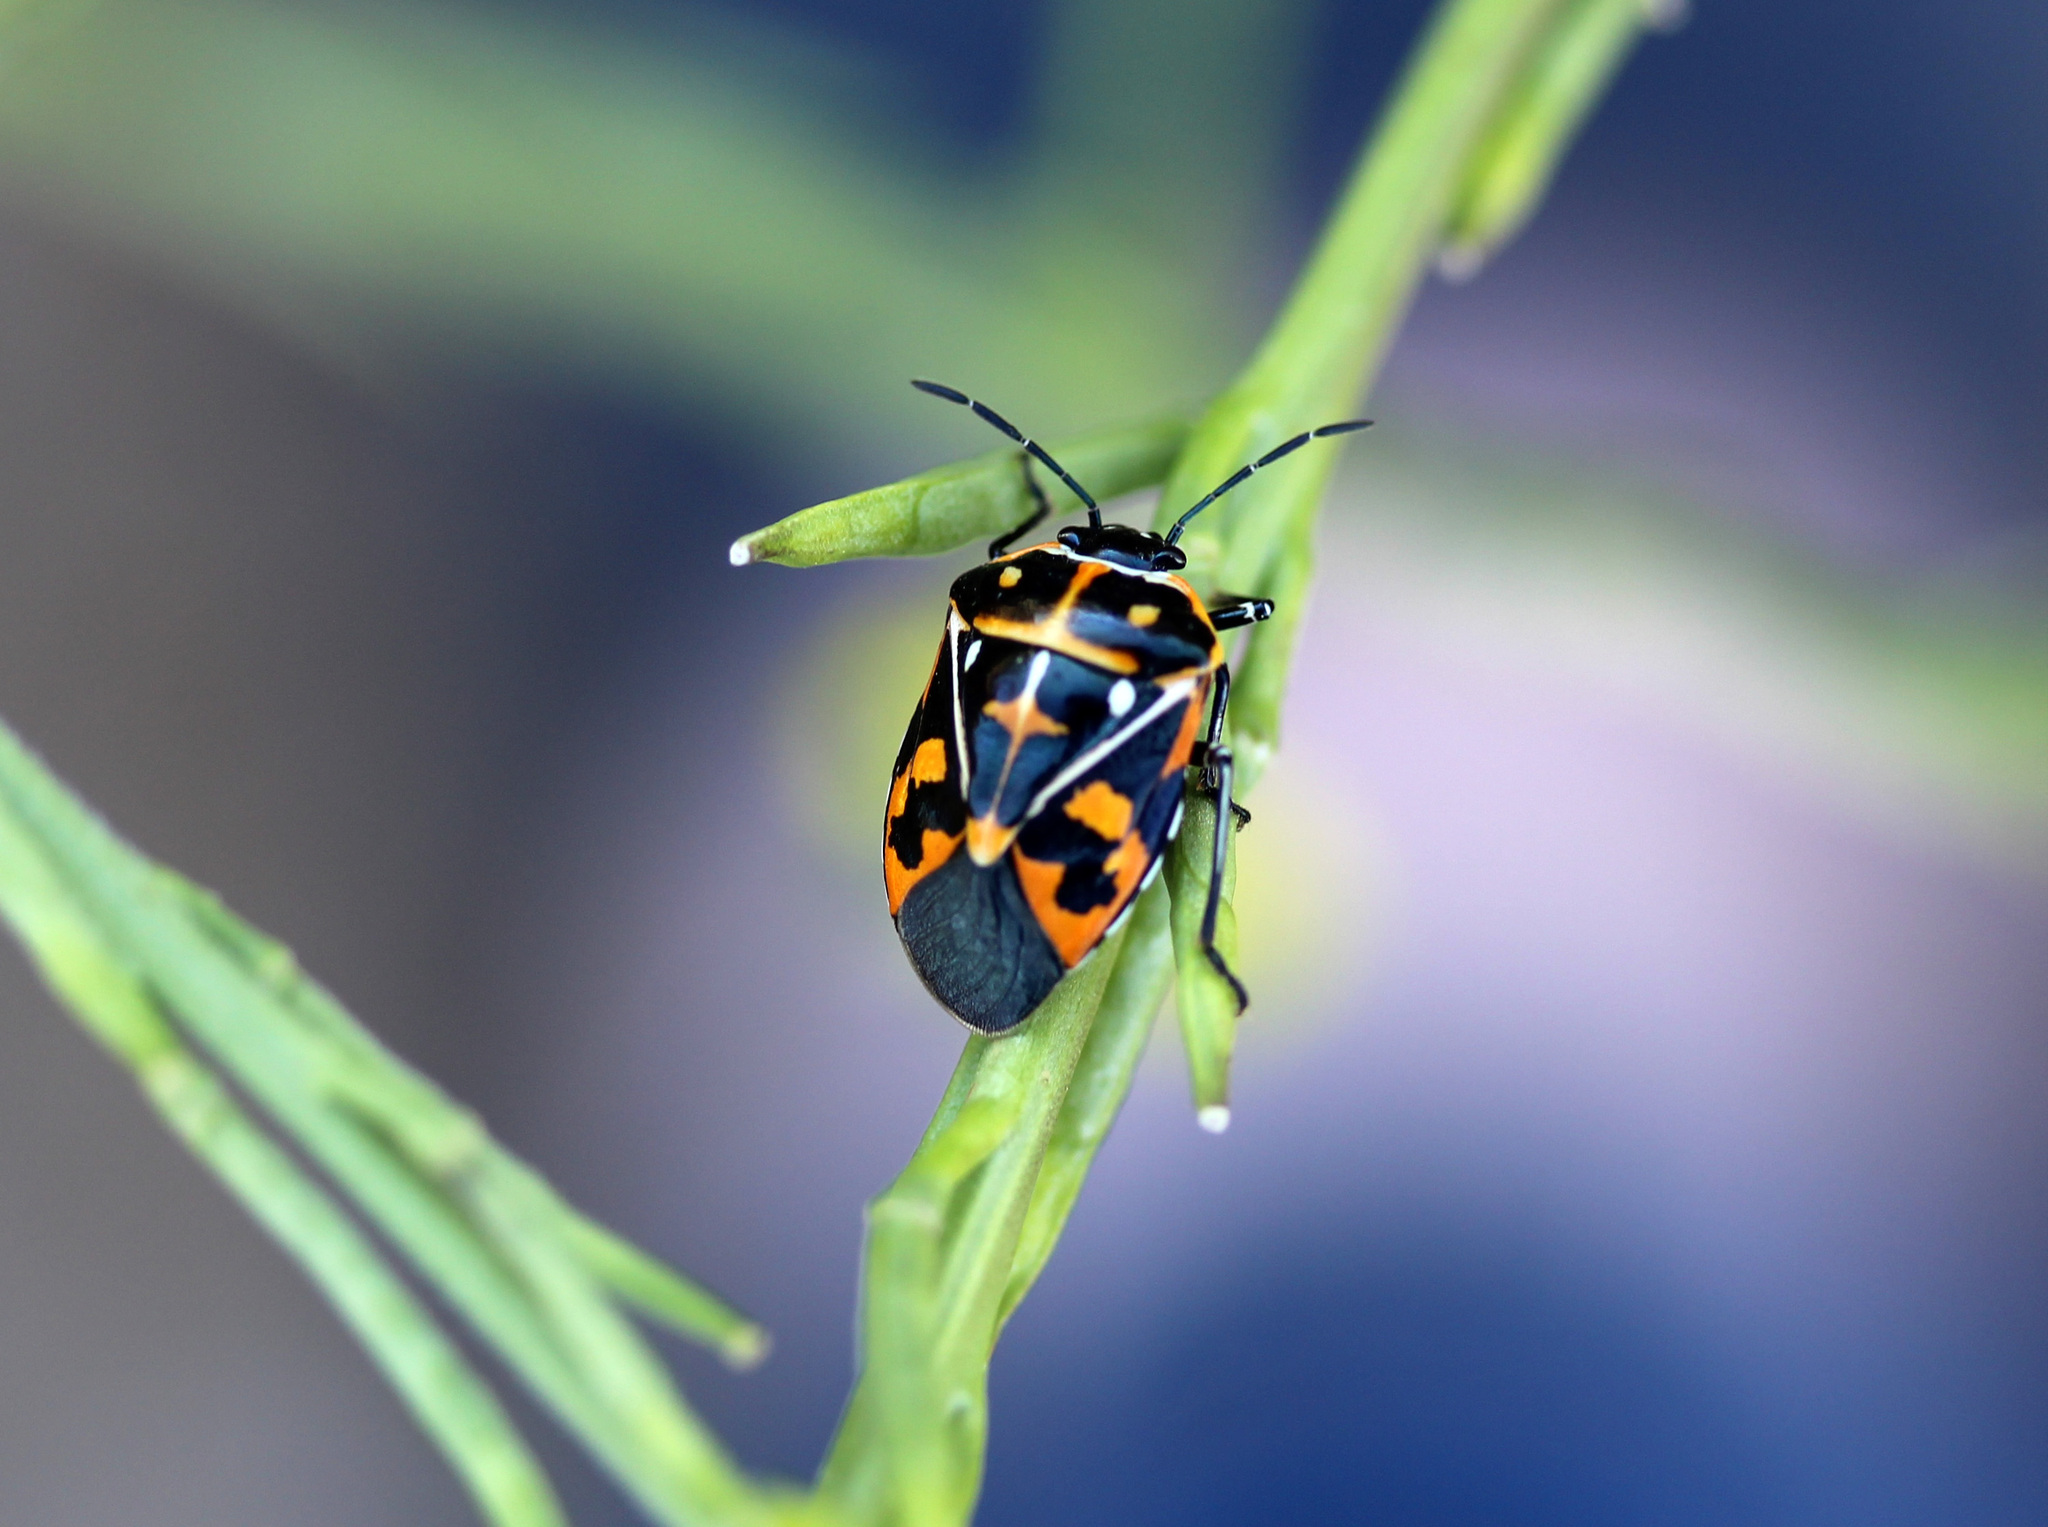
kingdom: Animalia
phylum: Arthropoda
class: Insecta
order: Hemiptera
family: Pentatomidae
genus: Murgantia
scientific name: Murgantia histrionica
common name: Harlequin bug
